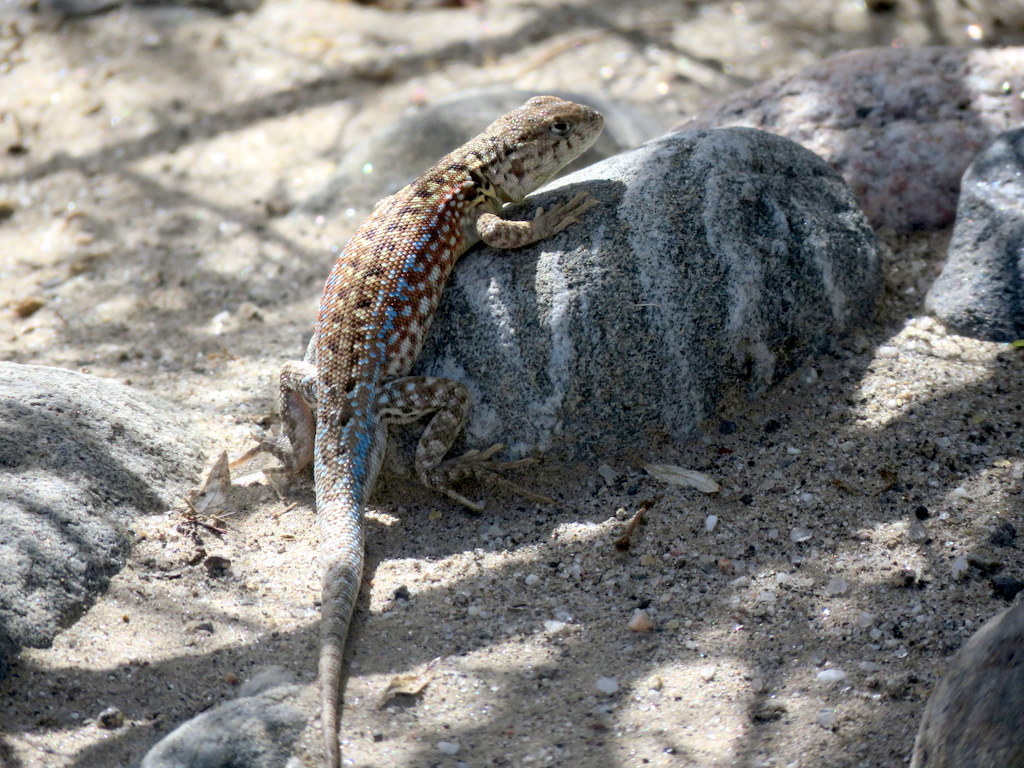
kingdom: Animalia
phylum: Chordata
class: Squamata
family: Liolaemidae
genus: Liolaemus
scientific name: Liolaemus quilmes
